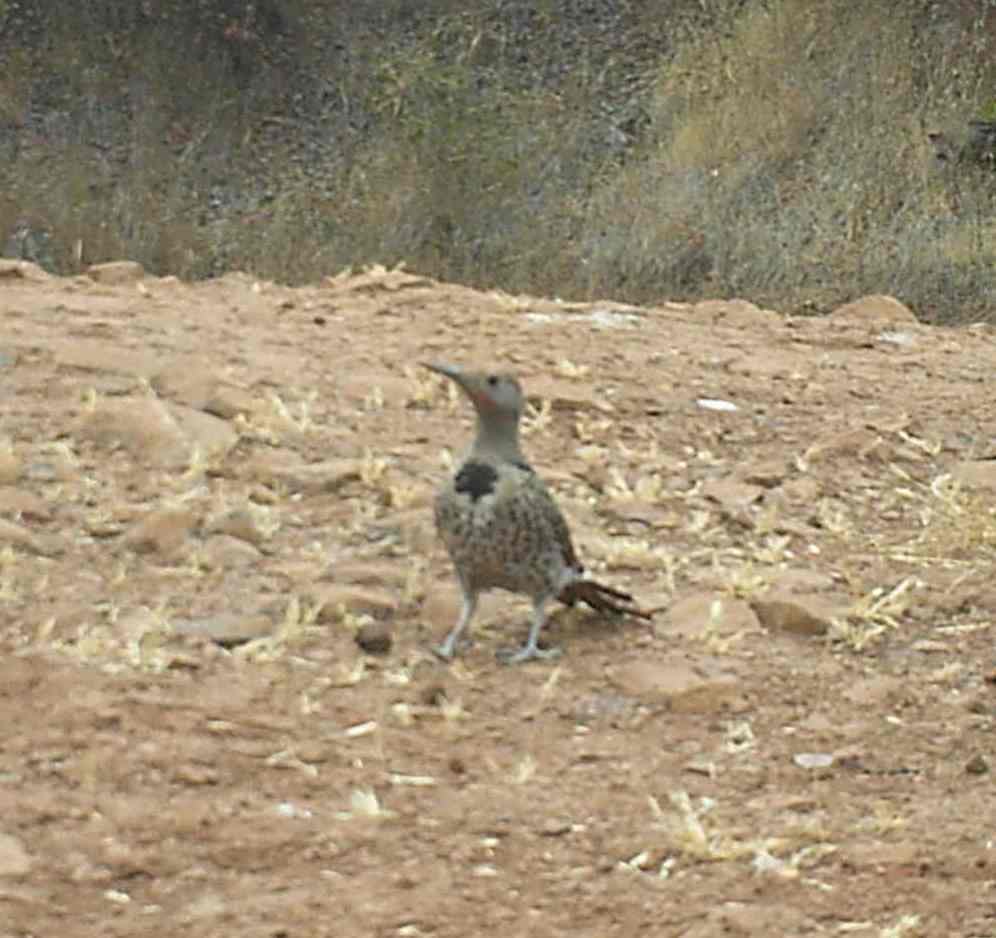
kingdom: Animalia
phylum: Chordata
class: Aves
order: Piciformes
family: Picidae
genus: Colaptes
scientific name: Colaptes auratus
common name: Northern flicker
